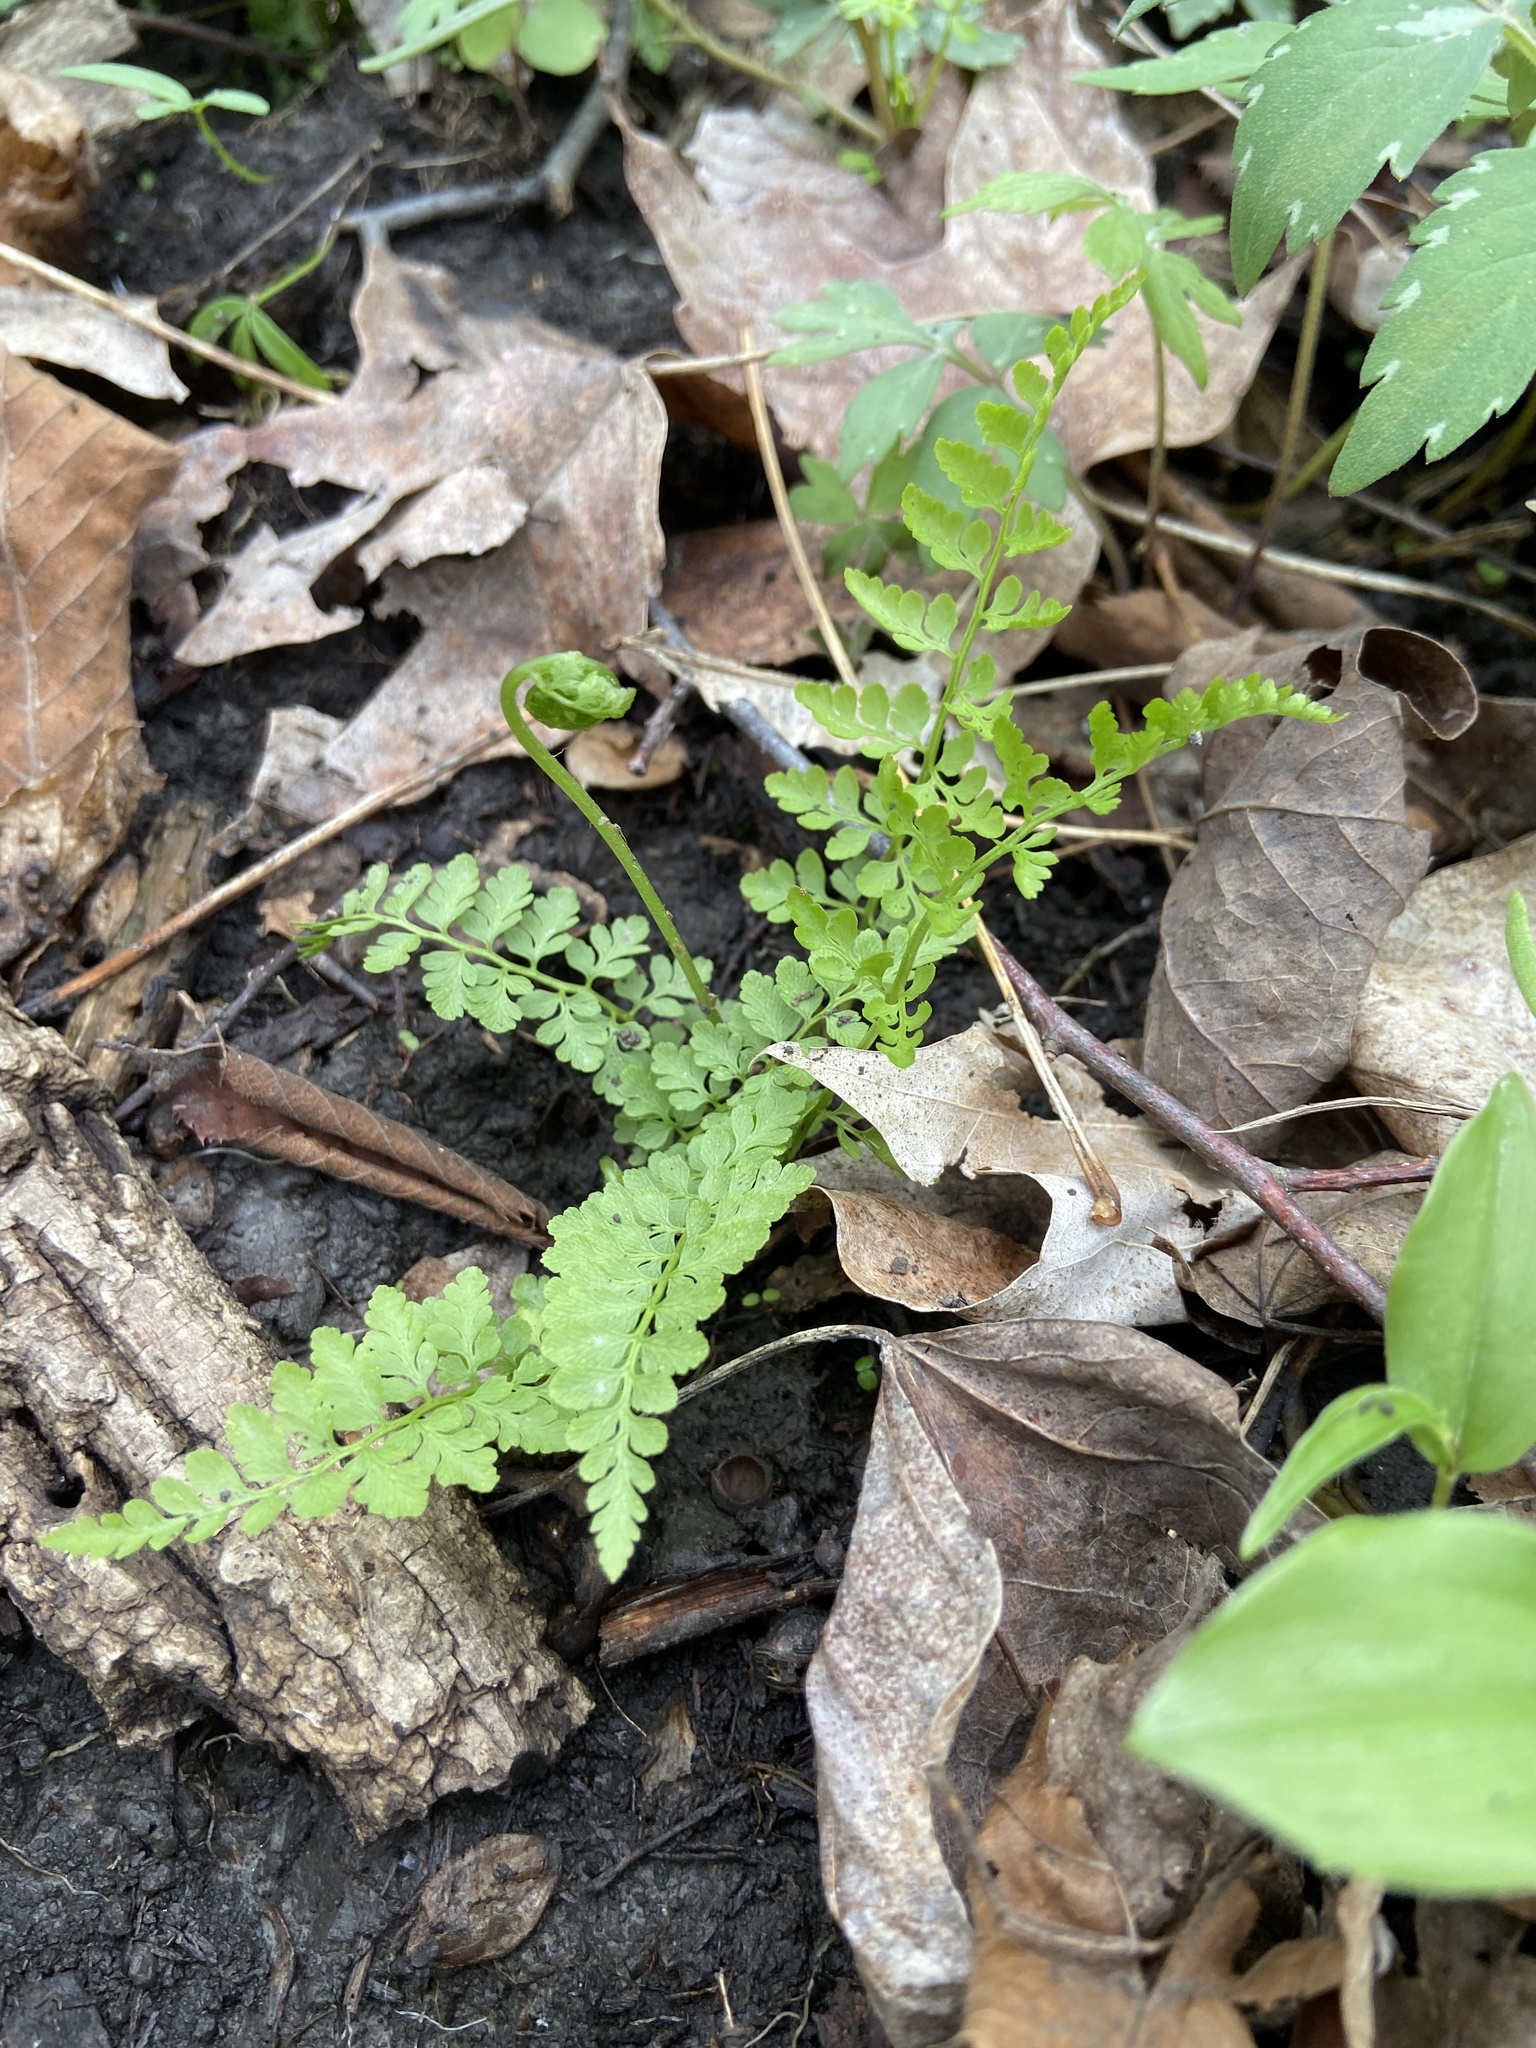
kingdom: Plantae
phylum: Tracheophyta
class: Polypodiopsida
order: Polypodiales
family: Cystopteridaceae
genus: Cystopteris
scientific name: Cystopteris protrusa
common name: Lowland brittle fern
